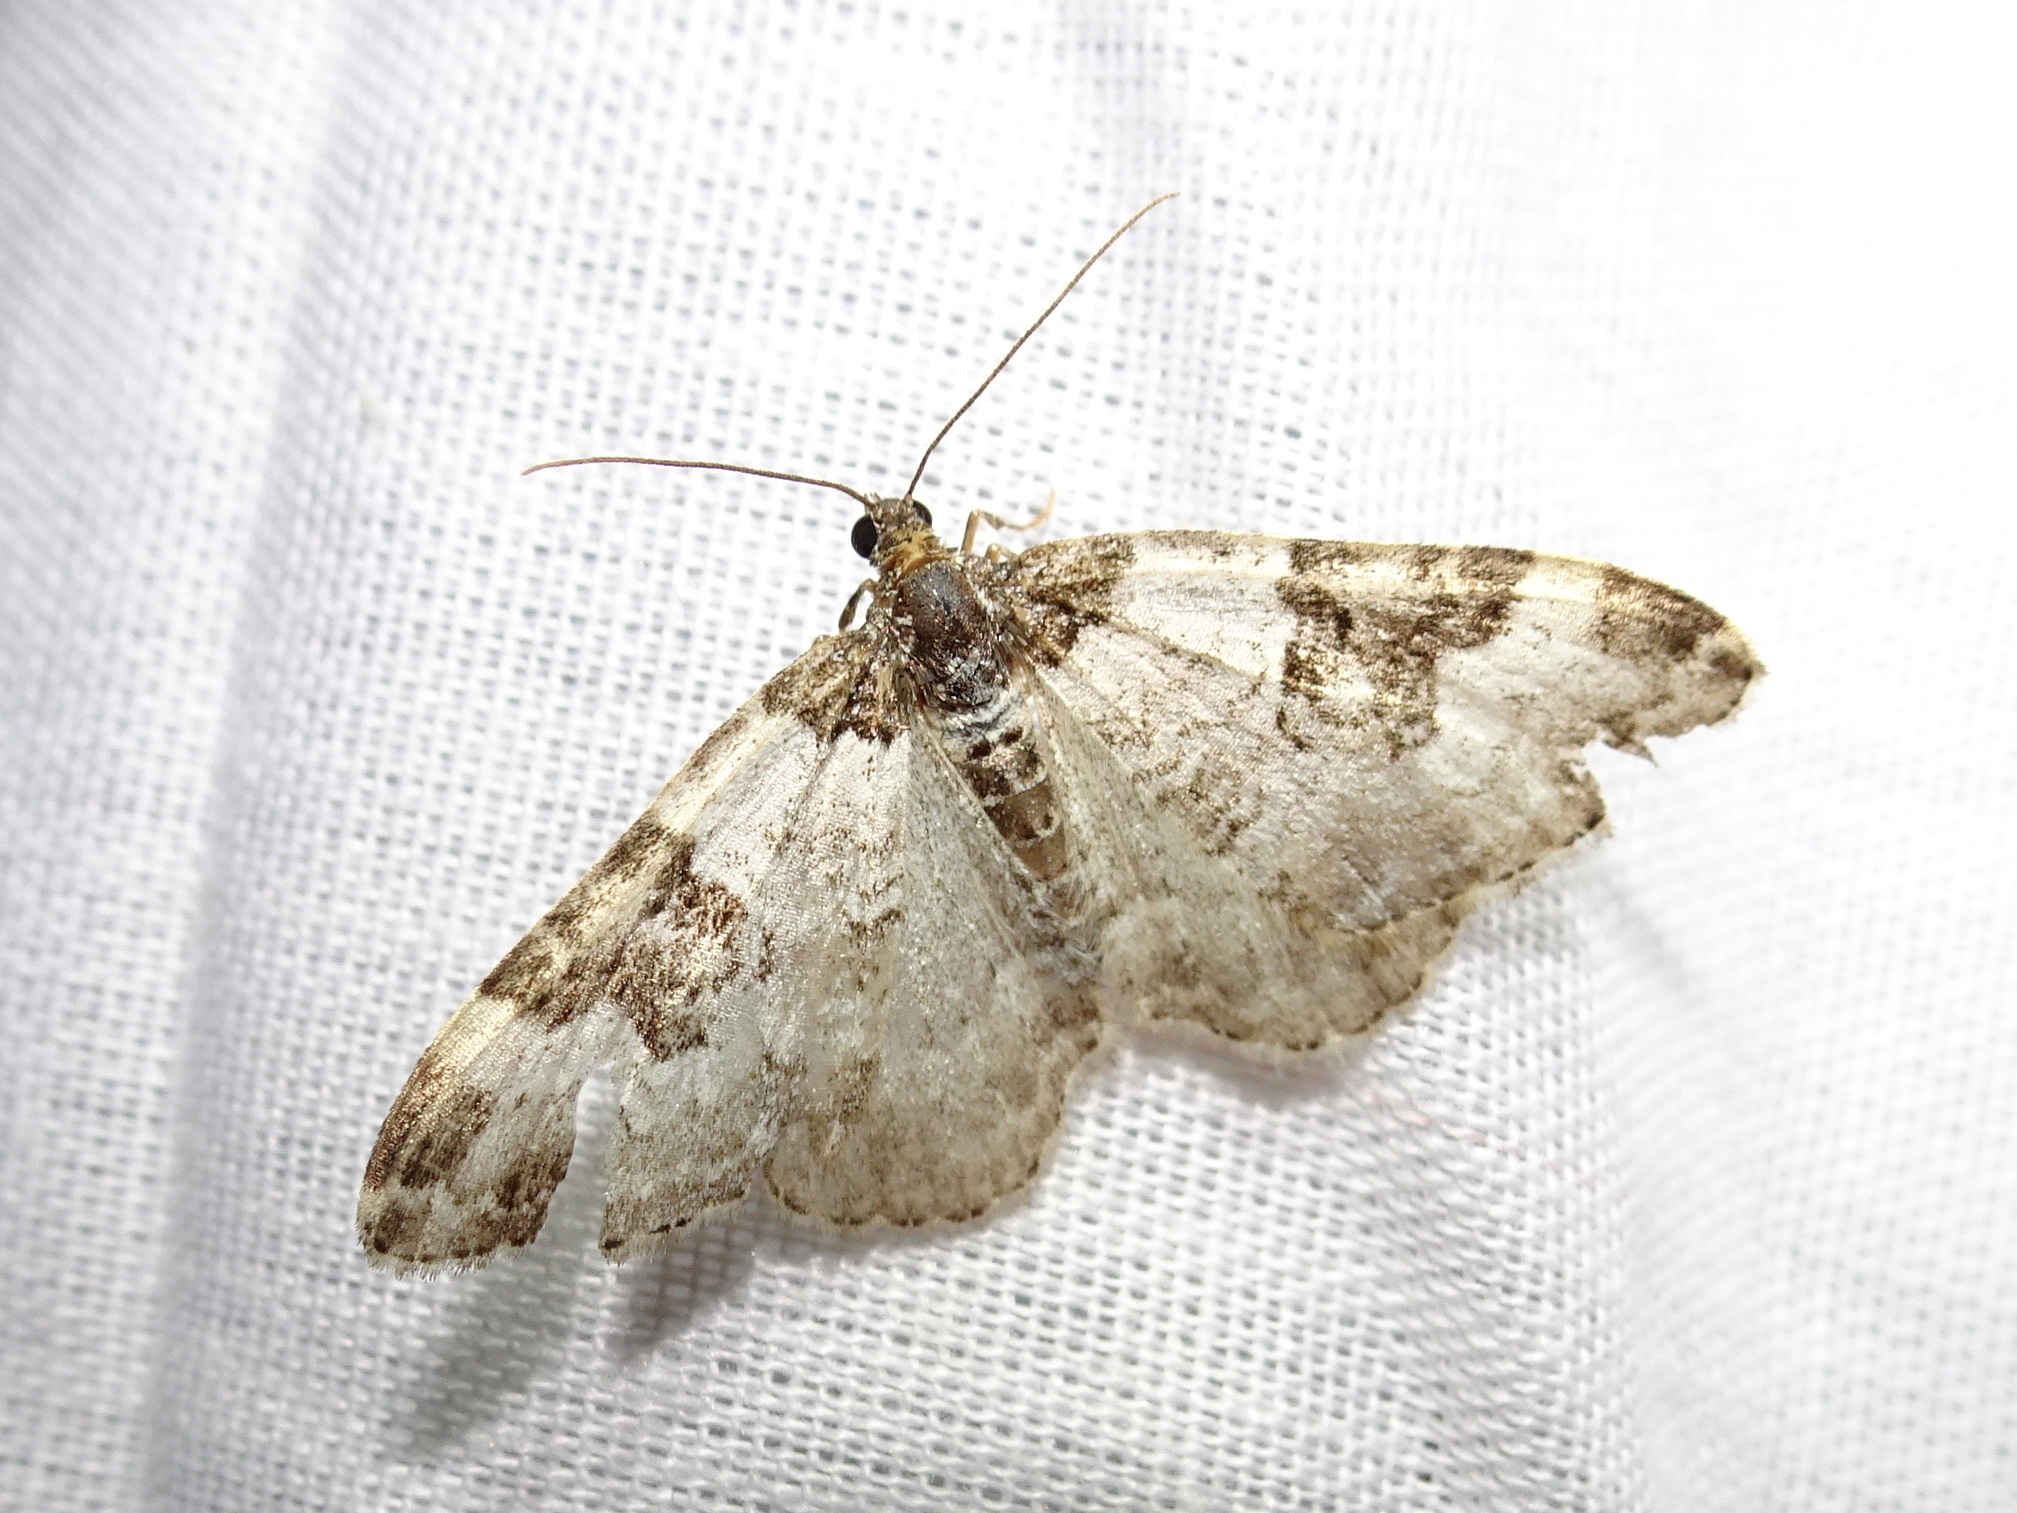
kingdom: Animalia
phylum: Arthropoda
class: Insecta
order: Lepidoptera
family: Geometridae
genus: Xanthorhoe
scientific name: Xanthorhoe fluctuata
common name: Garden carpet
